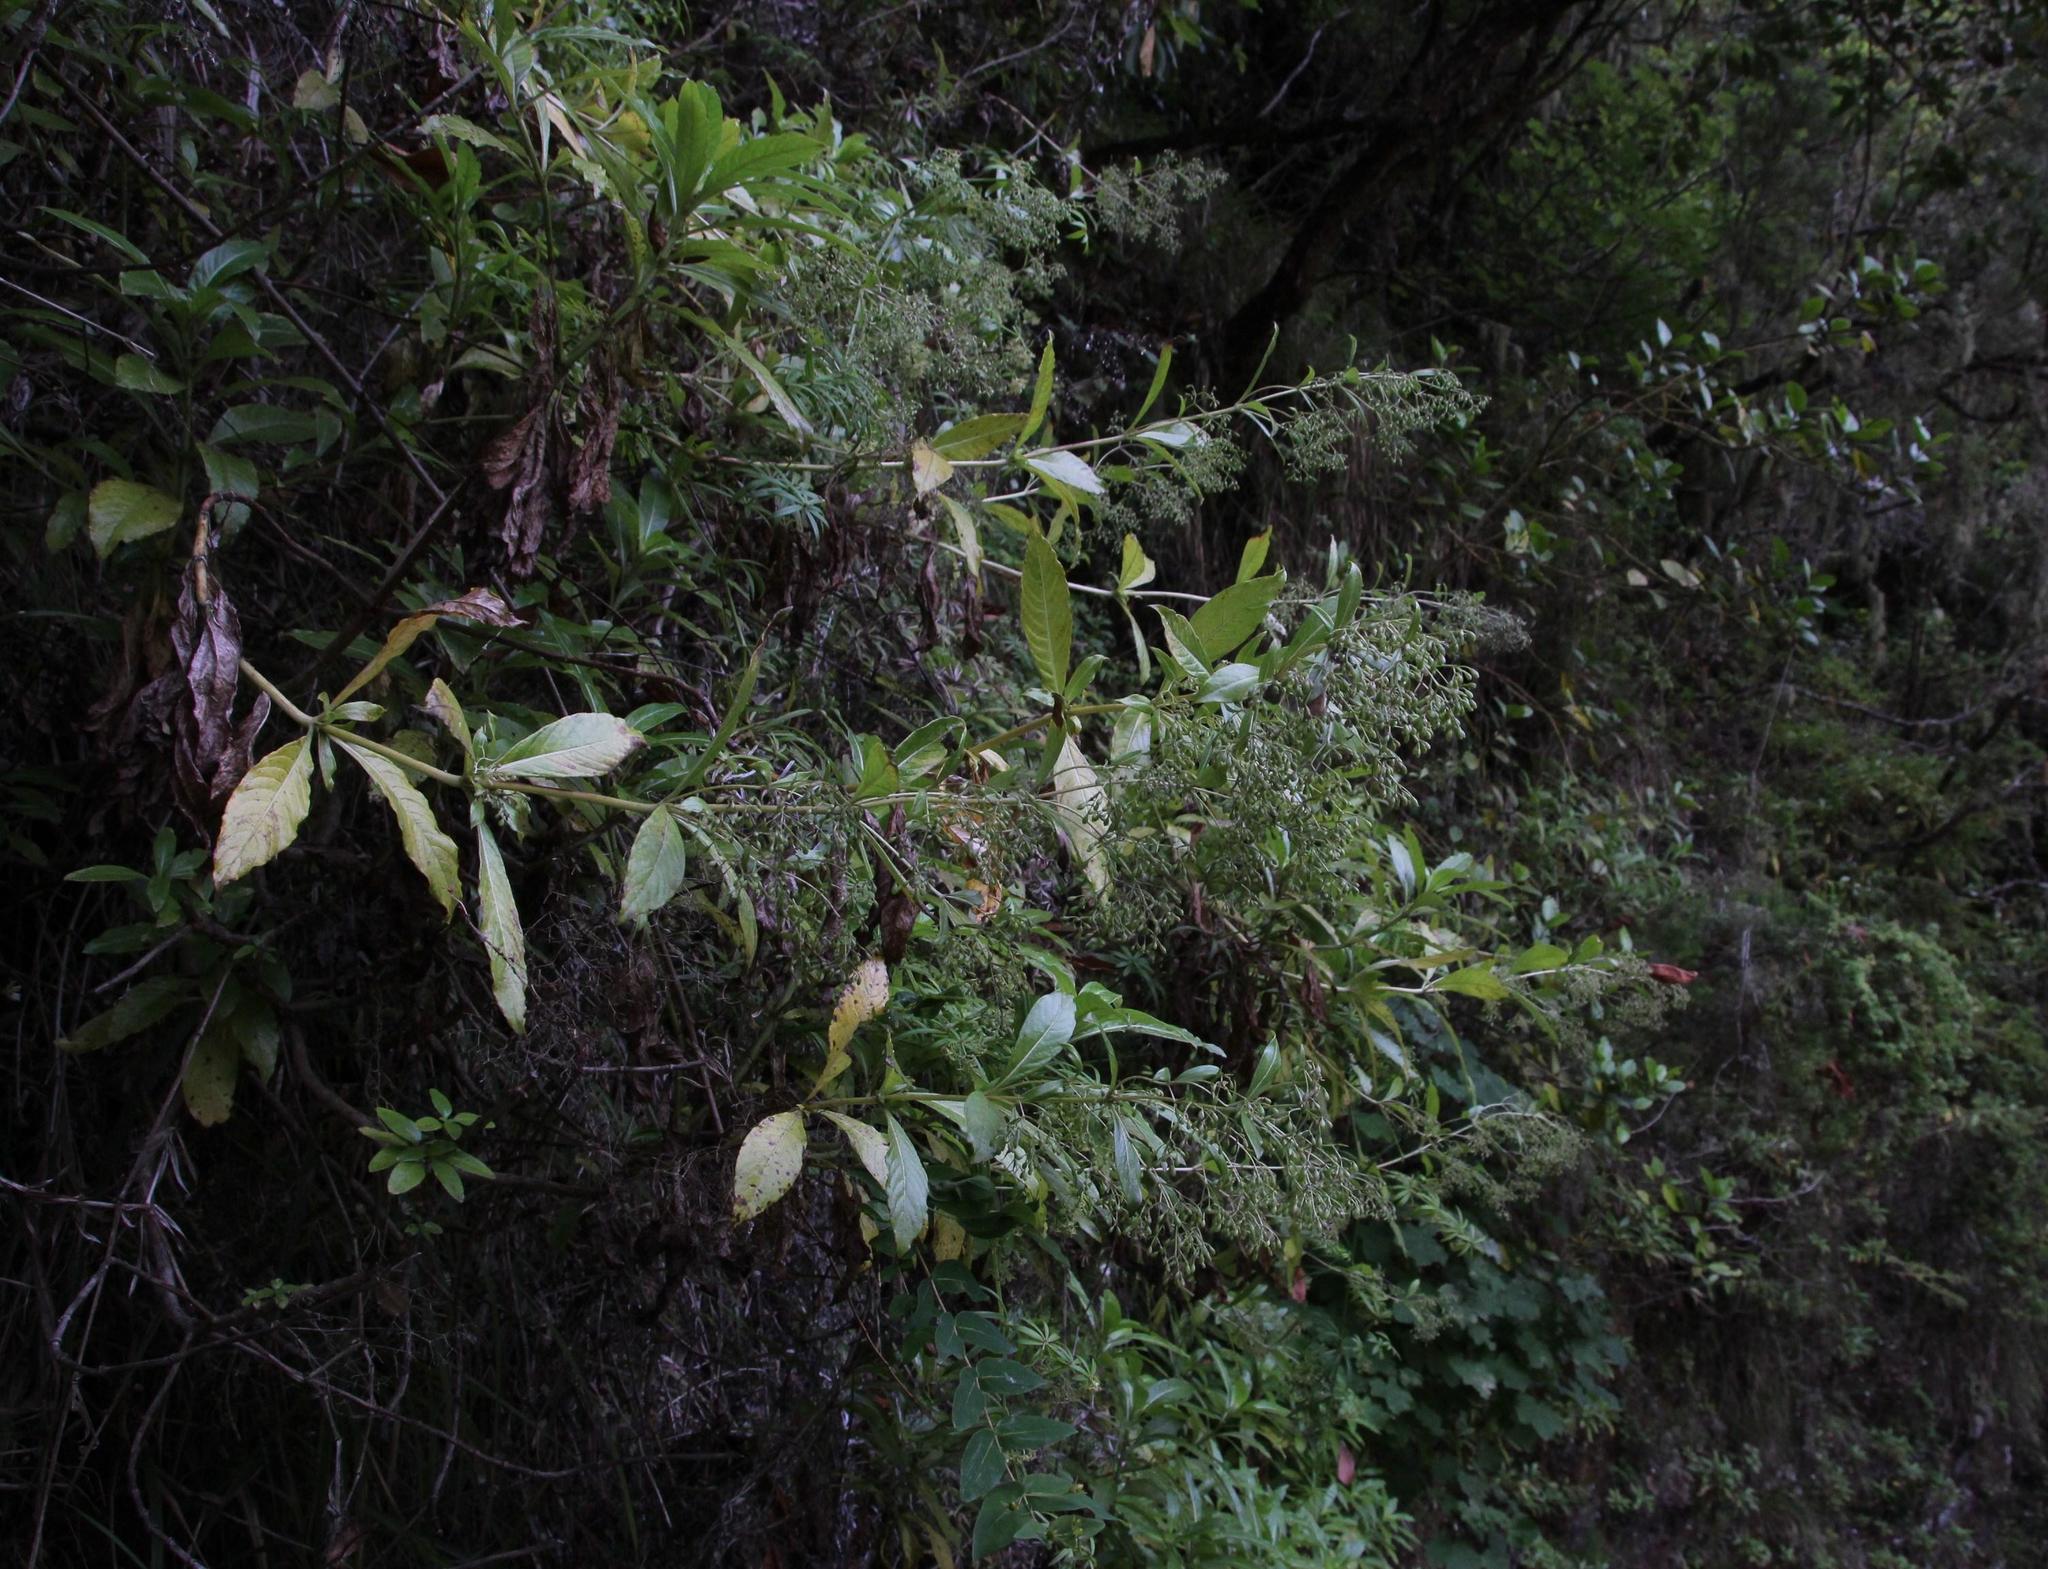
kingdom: Plantae
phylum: Tracheophyta
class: Magnoliopsida
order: Gentianales
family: Rubiaceae
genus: Phyllis
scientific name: Phyllis nobla
